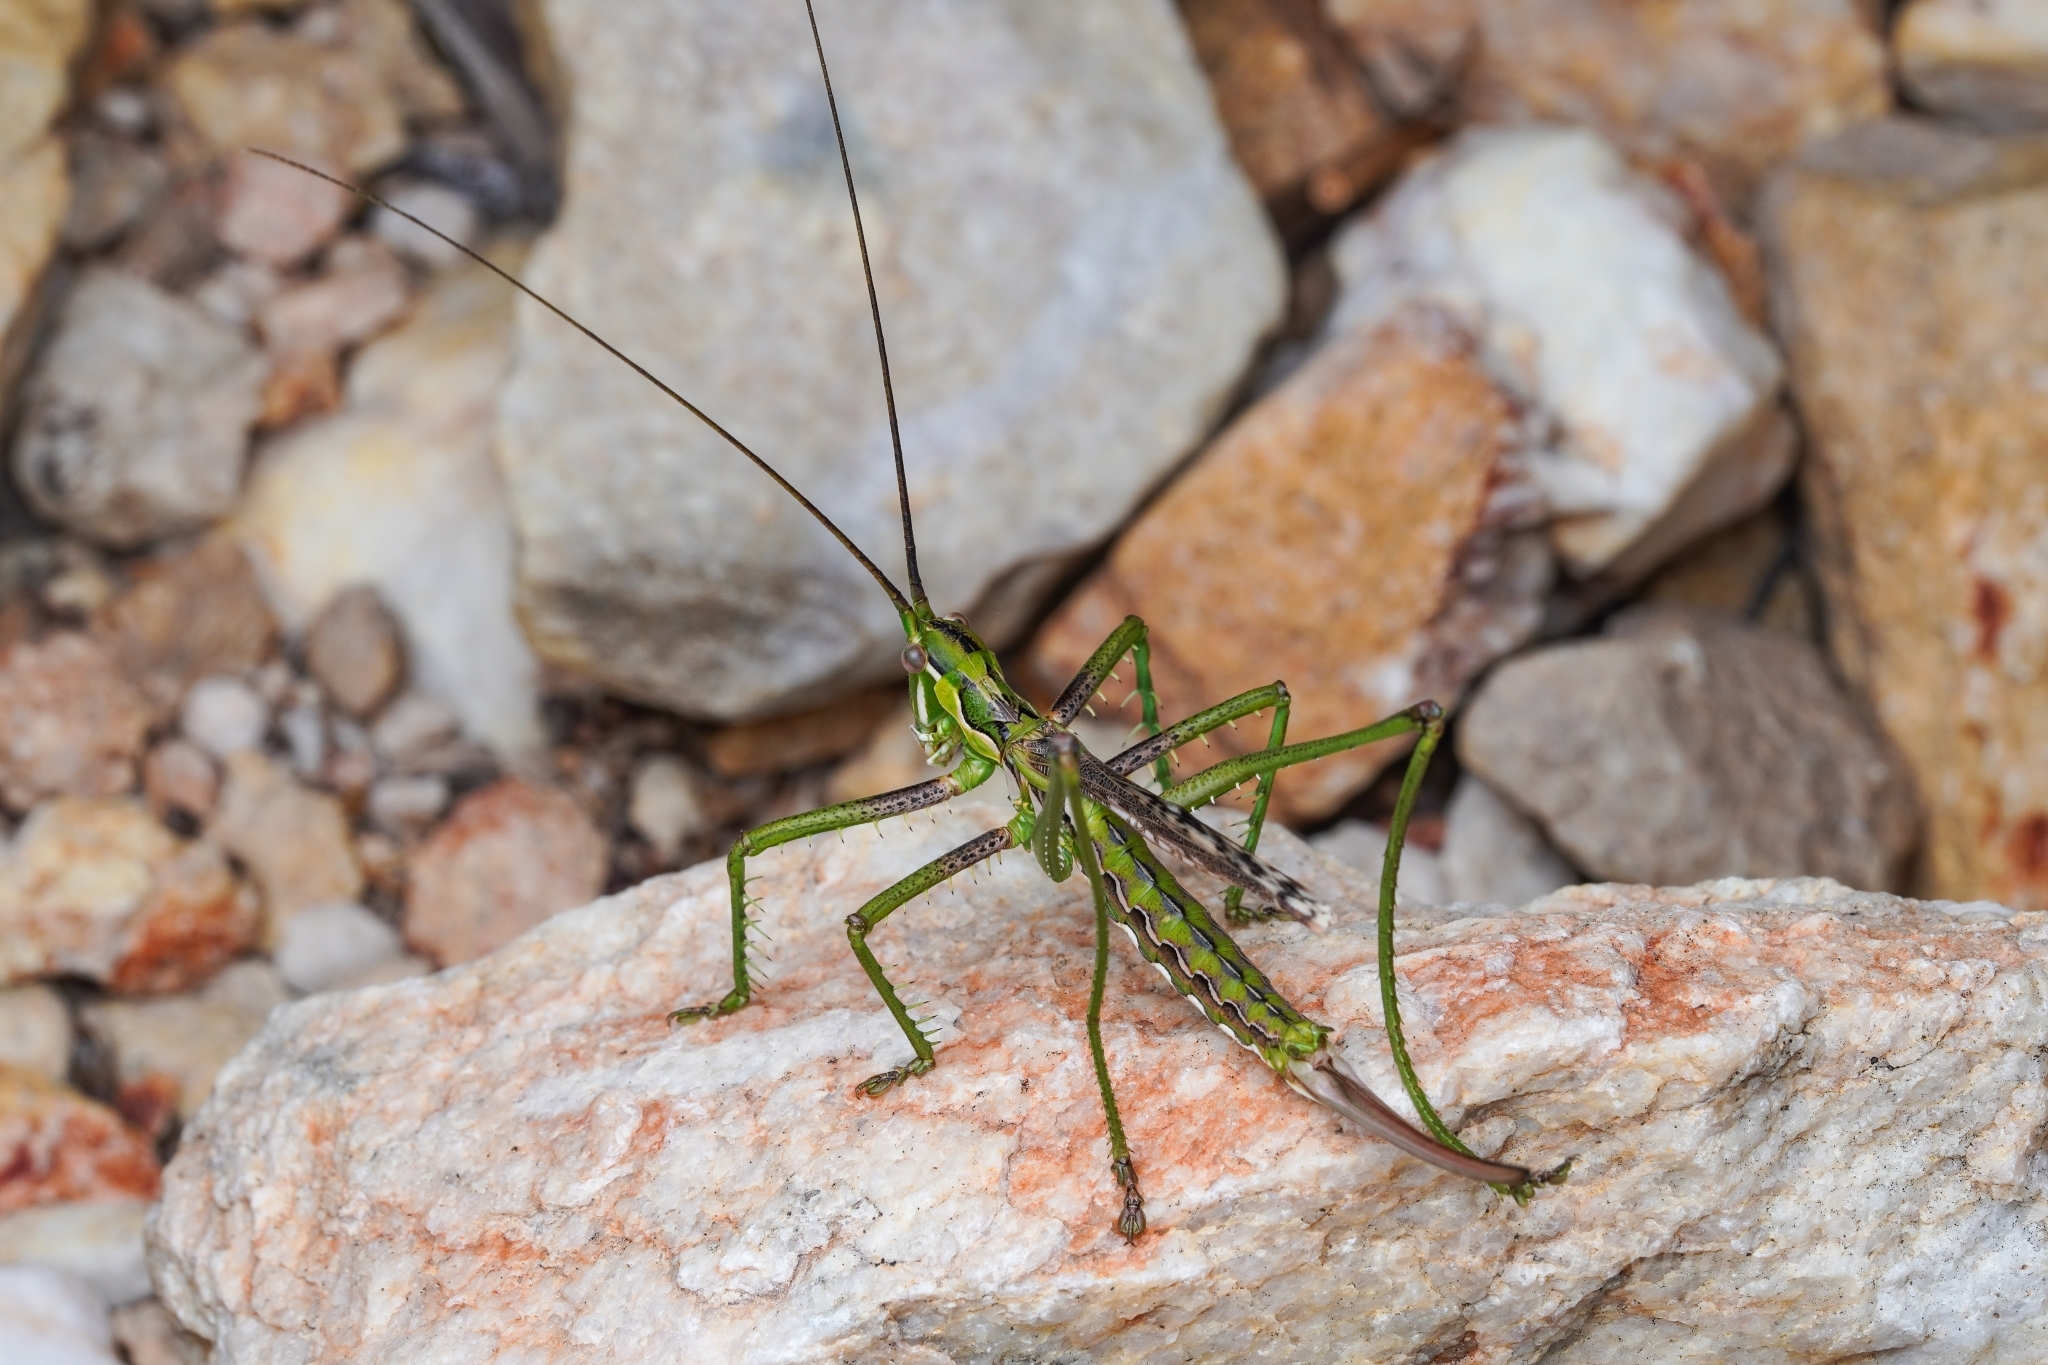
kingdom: Animalia
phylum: Arthropoda
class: Insecta
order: Orthoptera
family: Tettigoniidae
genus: Clonia
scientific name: Clonia vansoni
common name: Van son's wavy clonia
